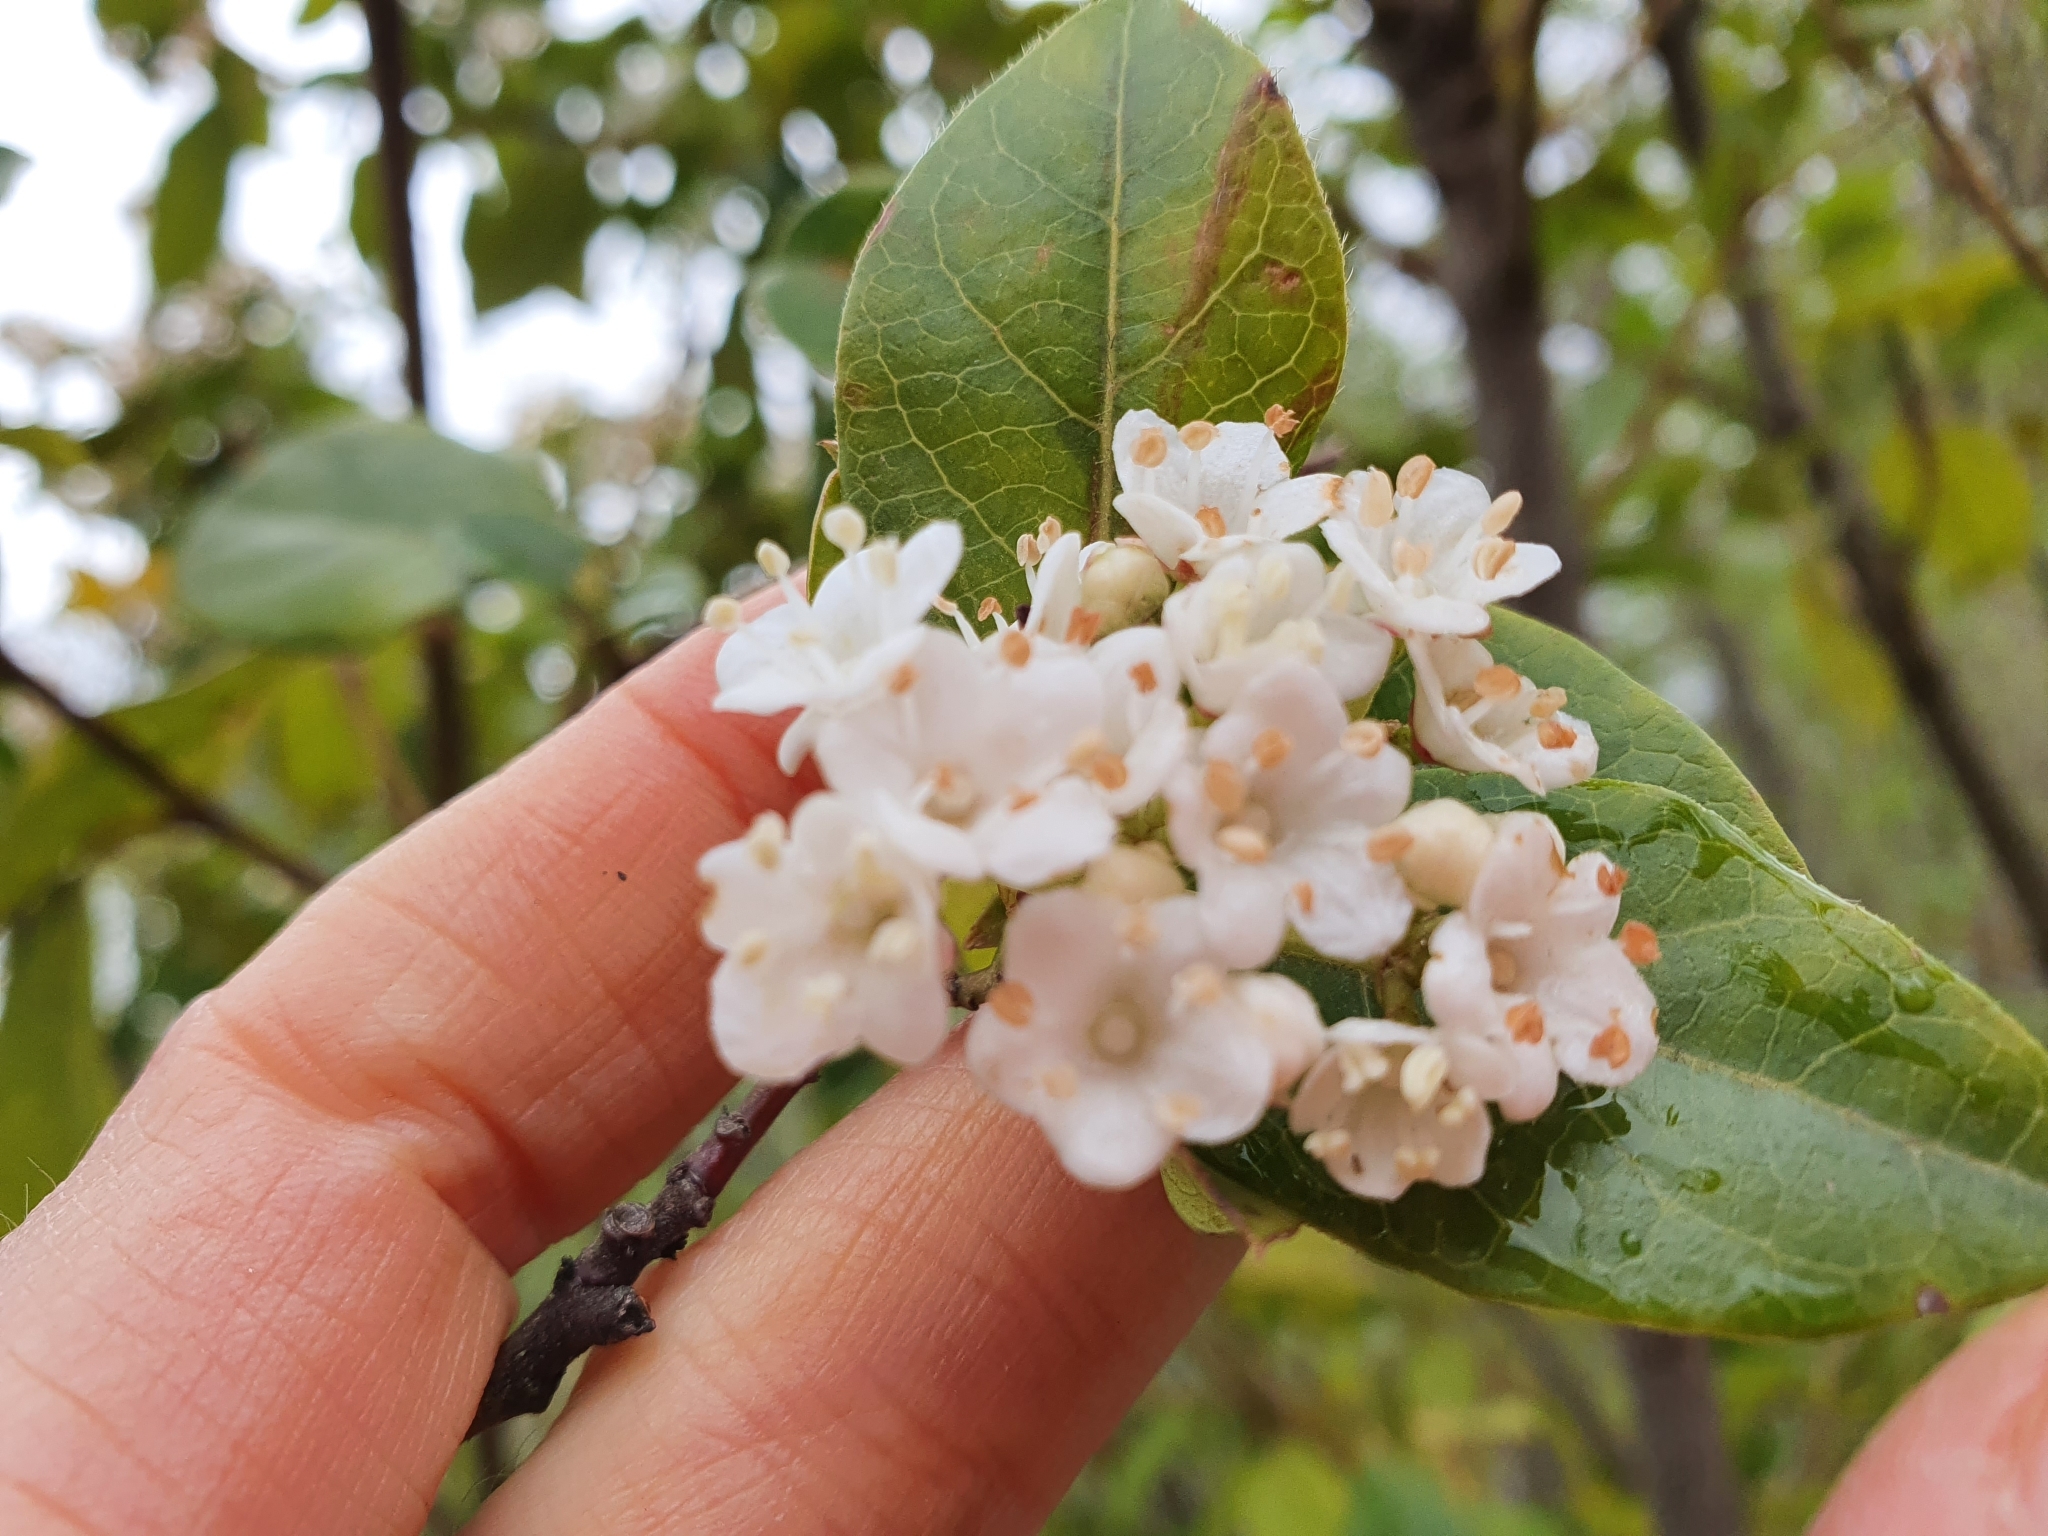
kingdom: Plantae
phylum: Tracheophyta
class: Magnoliopsida
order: Dipsacales
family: Viburnaceae
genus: Viburnum
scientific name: Viburnum tinus
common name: Laurustinus
